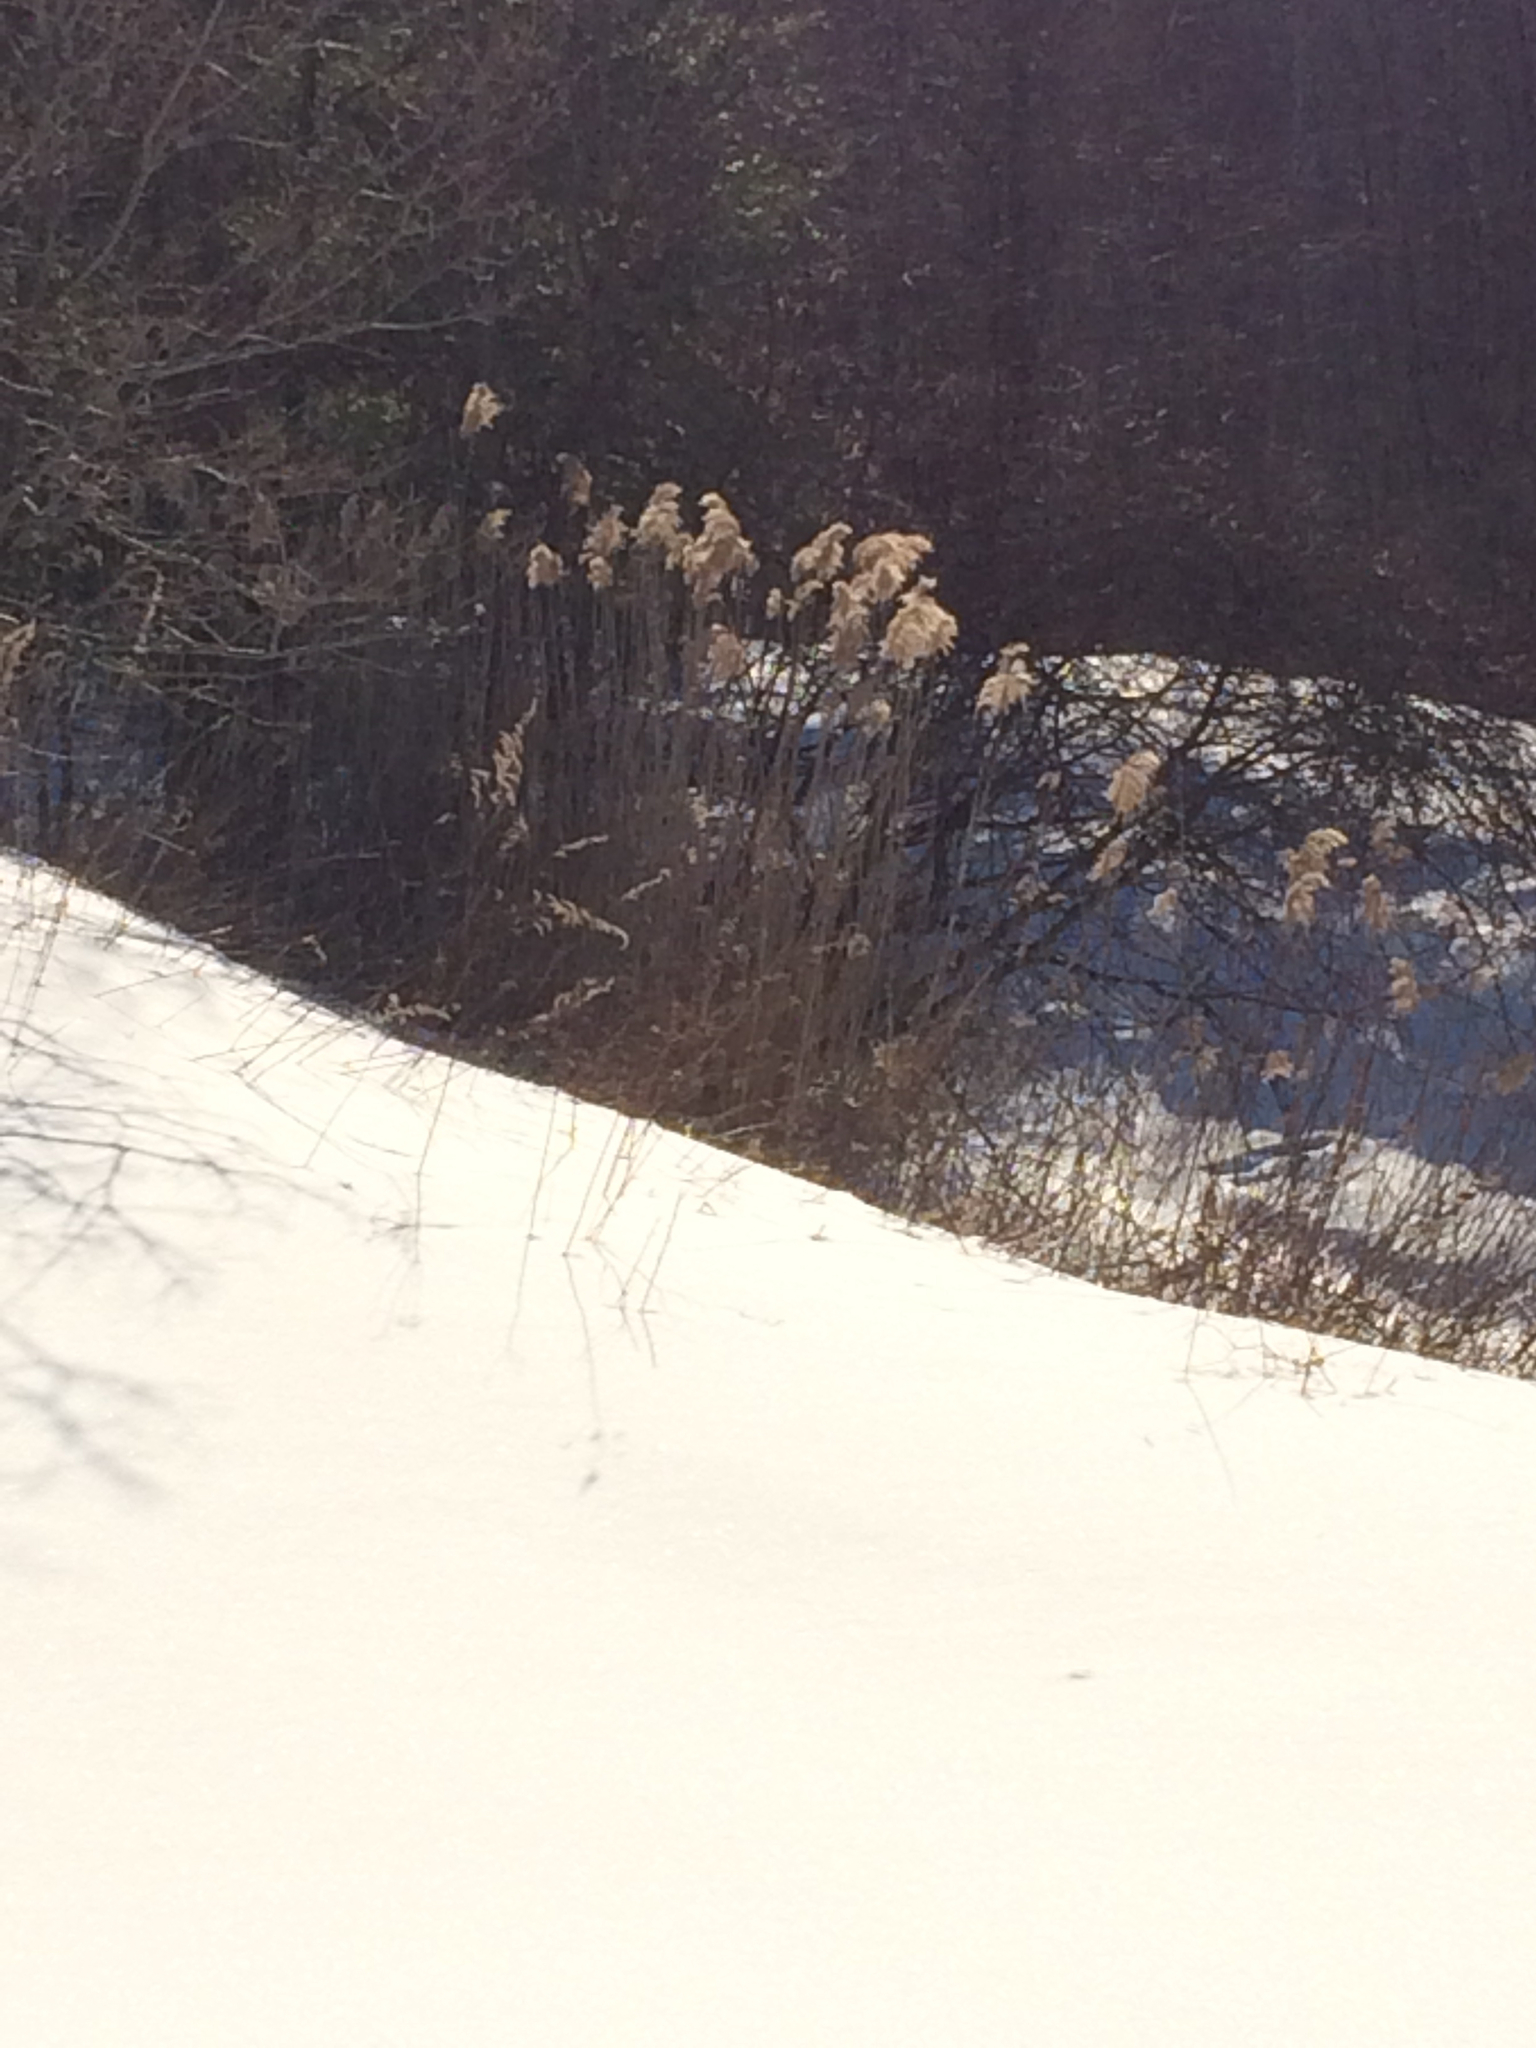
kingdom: Plantae
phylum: Tracheophyta
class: Liliopsida
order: Poales
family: Poaceae
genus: Phragmites
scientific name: Phragmites australis
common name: Common reed
